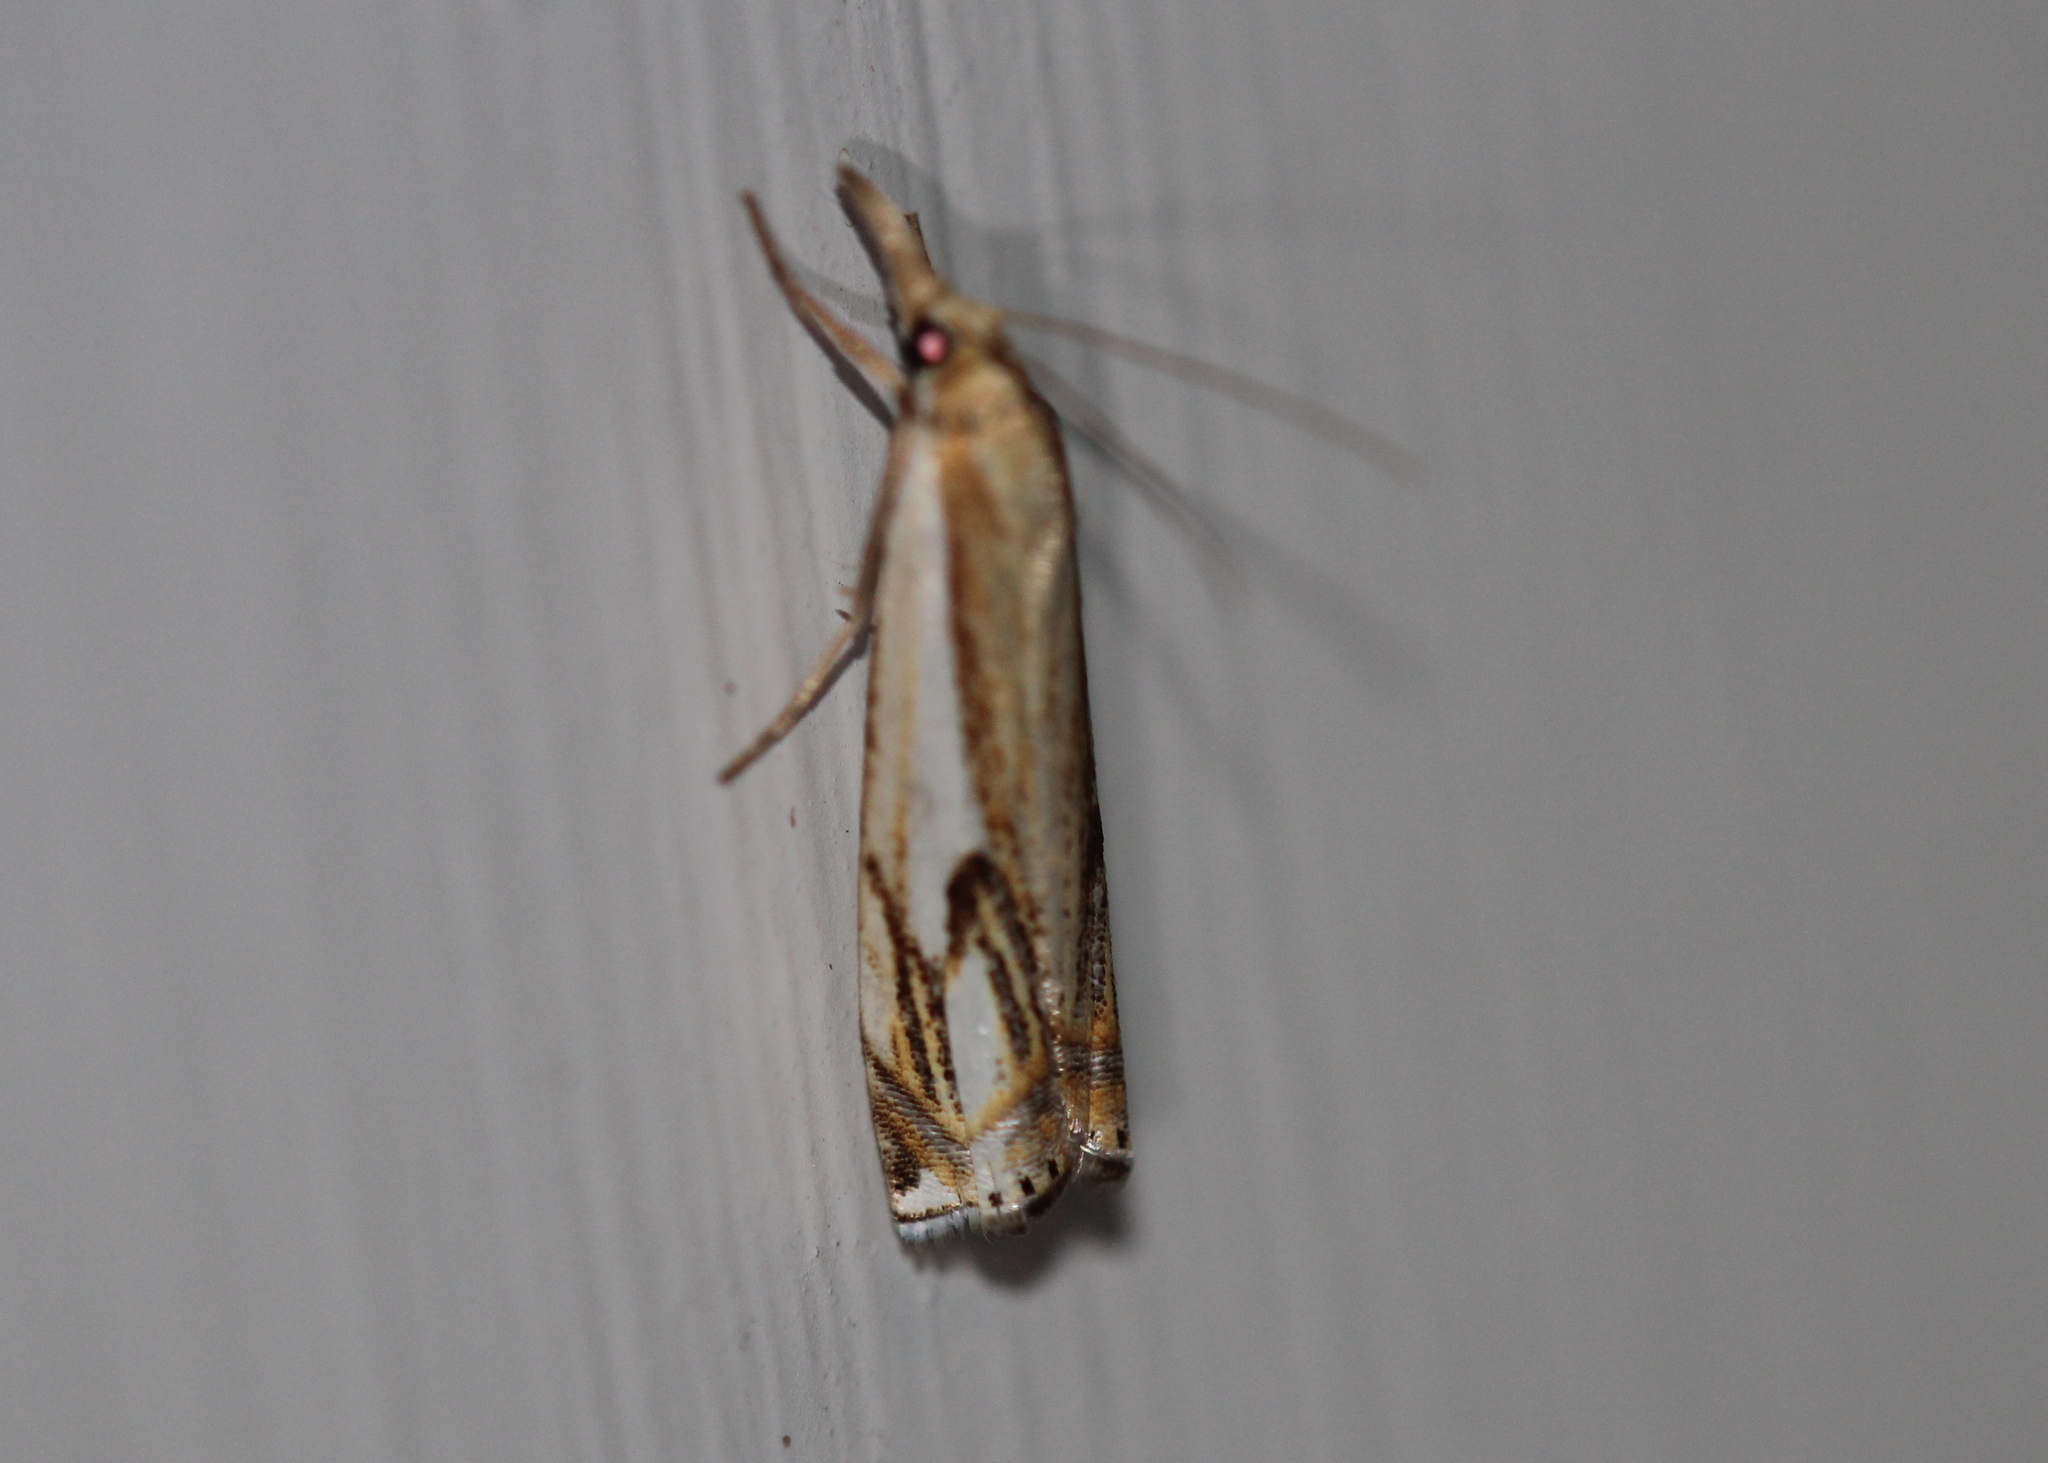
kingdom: Animalia
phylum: Arthropoda
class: Insecta
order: Lepidoptera
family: Crambidae
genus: Crambus
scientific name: Crambus agitatellus
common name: Double-banded grass-veneer
